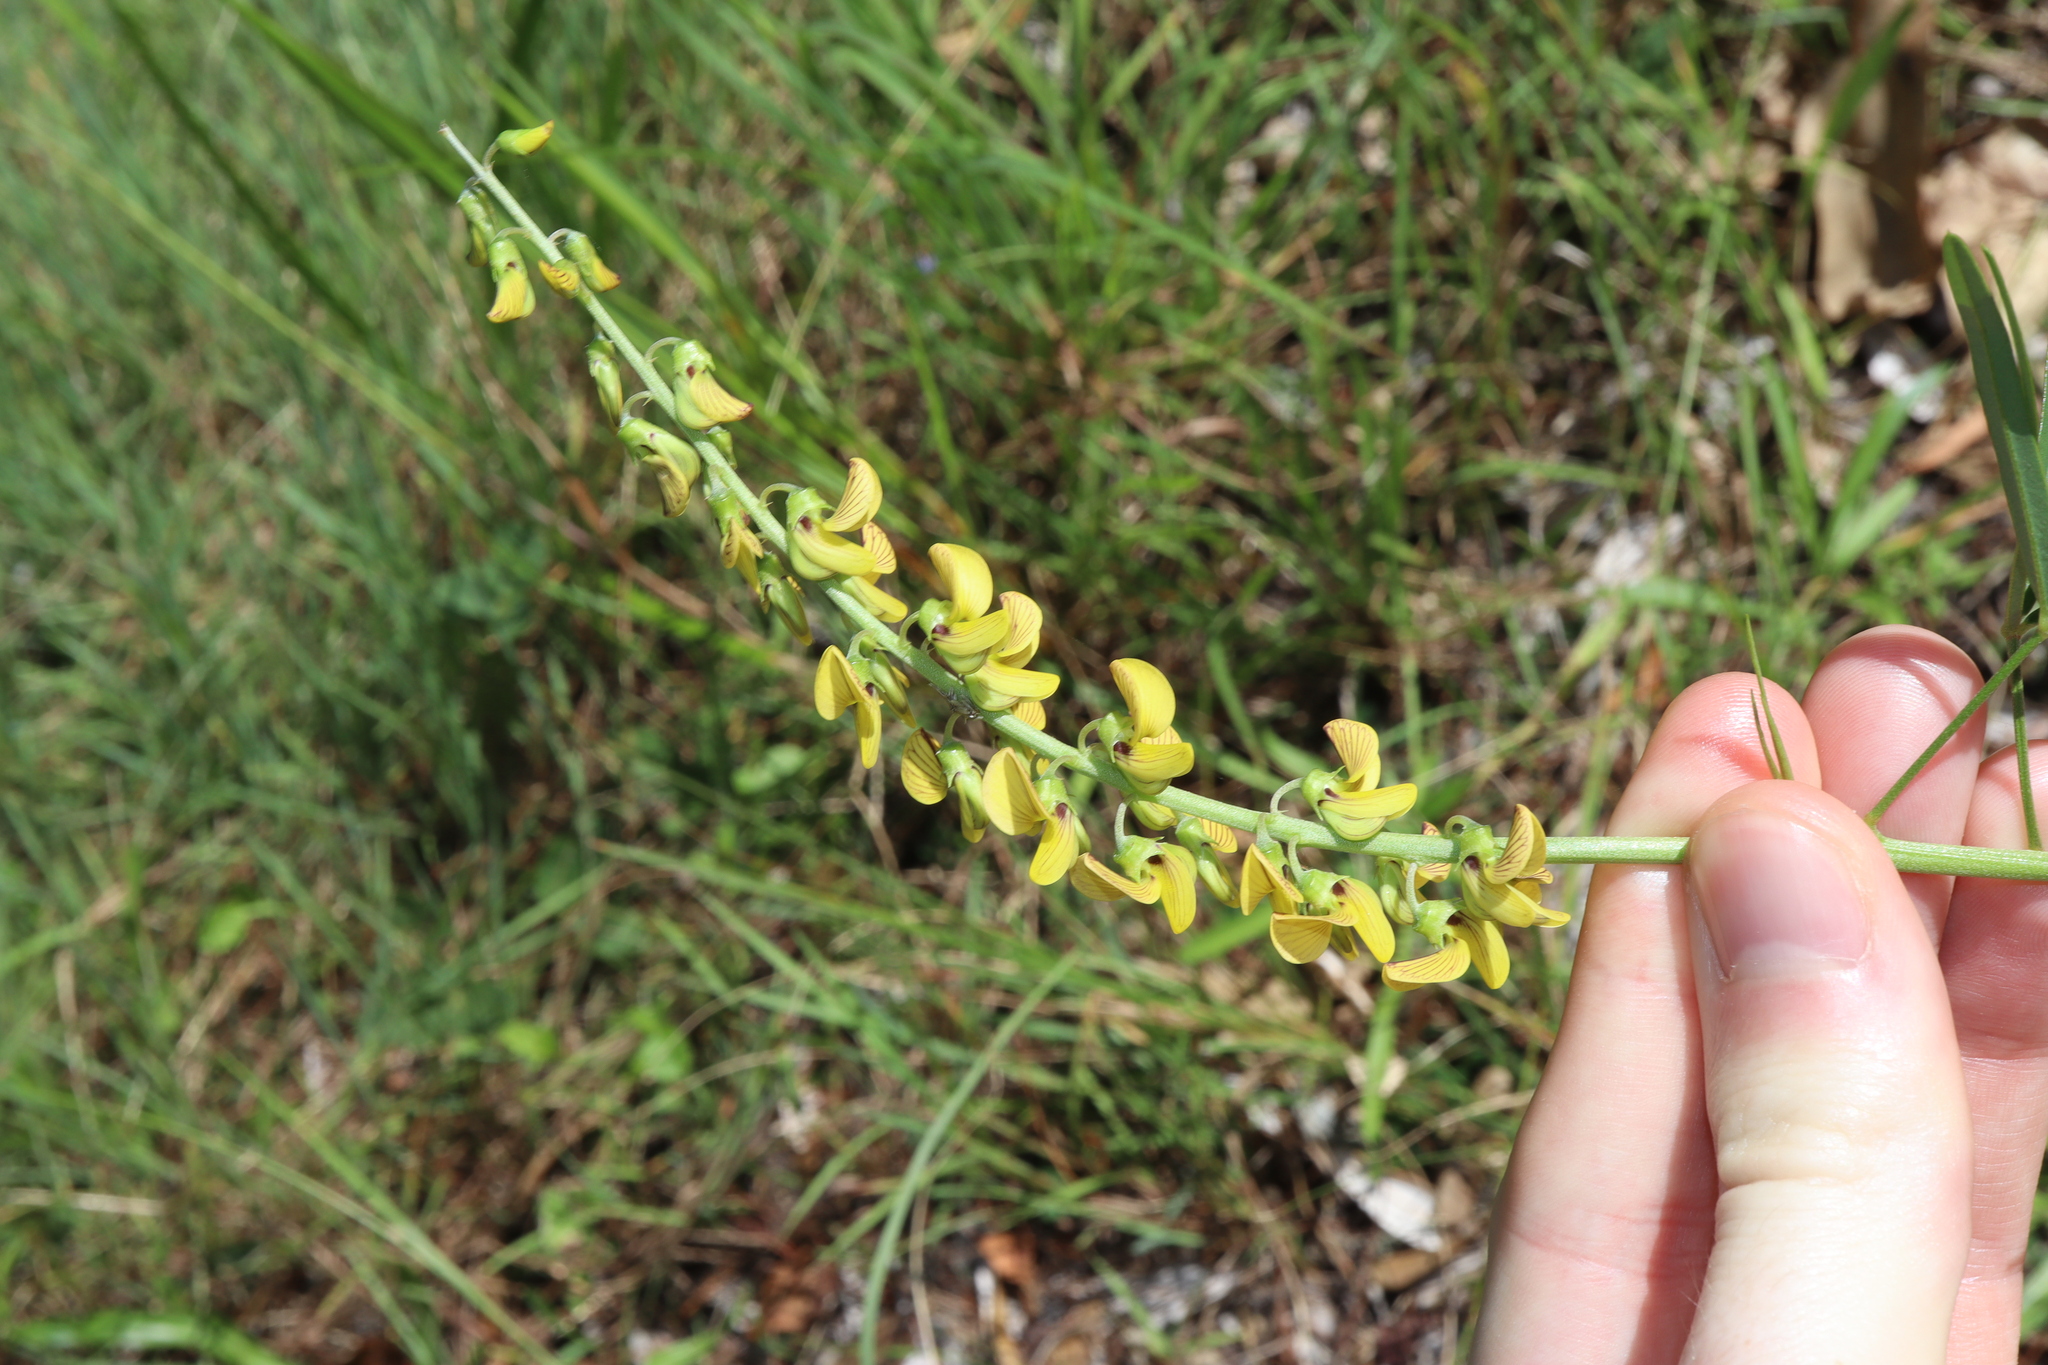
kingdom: Plantae
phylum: Tracheophyta
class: Magnoliopsida
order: Fabales
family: Fabaceae
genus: Crotalaria
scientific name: Crotalaria lanceolata
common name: Lanceleaf rattlebox
